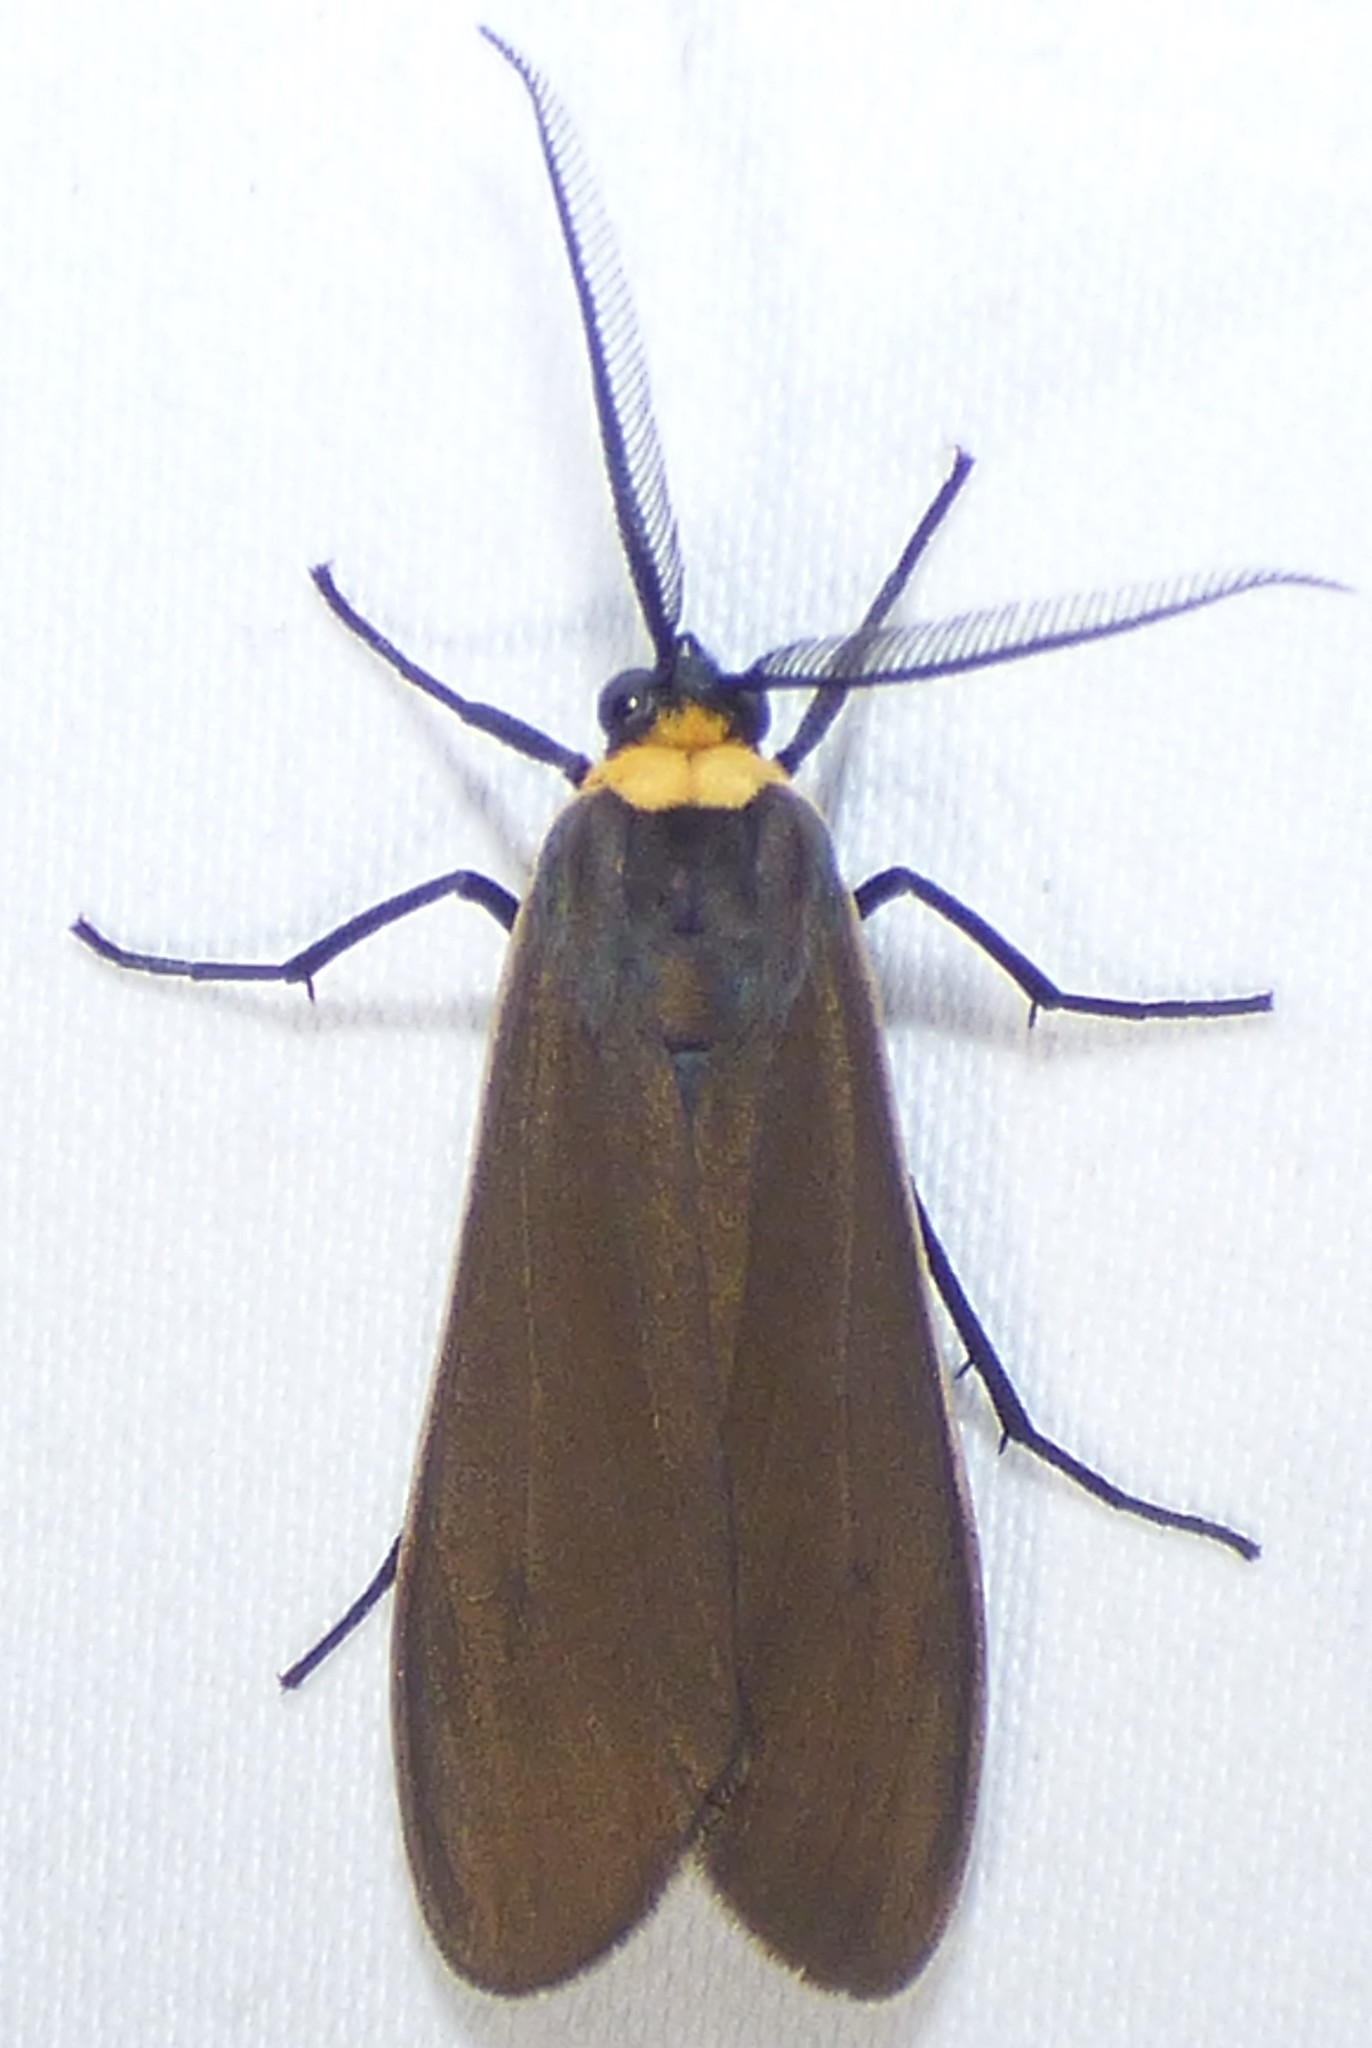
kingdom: Animalia
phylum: Arthropoda
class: Insecta
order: Lepidoptera
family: Erebidae
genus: Cisseps
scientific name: Cisseps fulvicollis
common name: Yellow-collared scape moth
